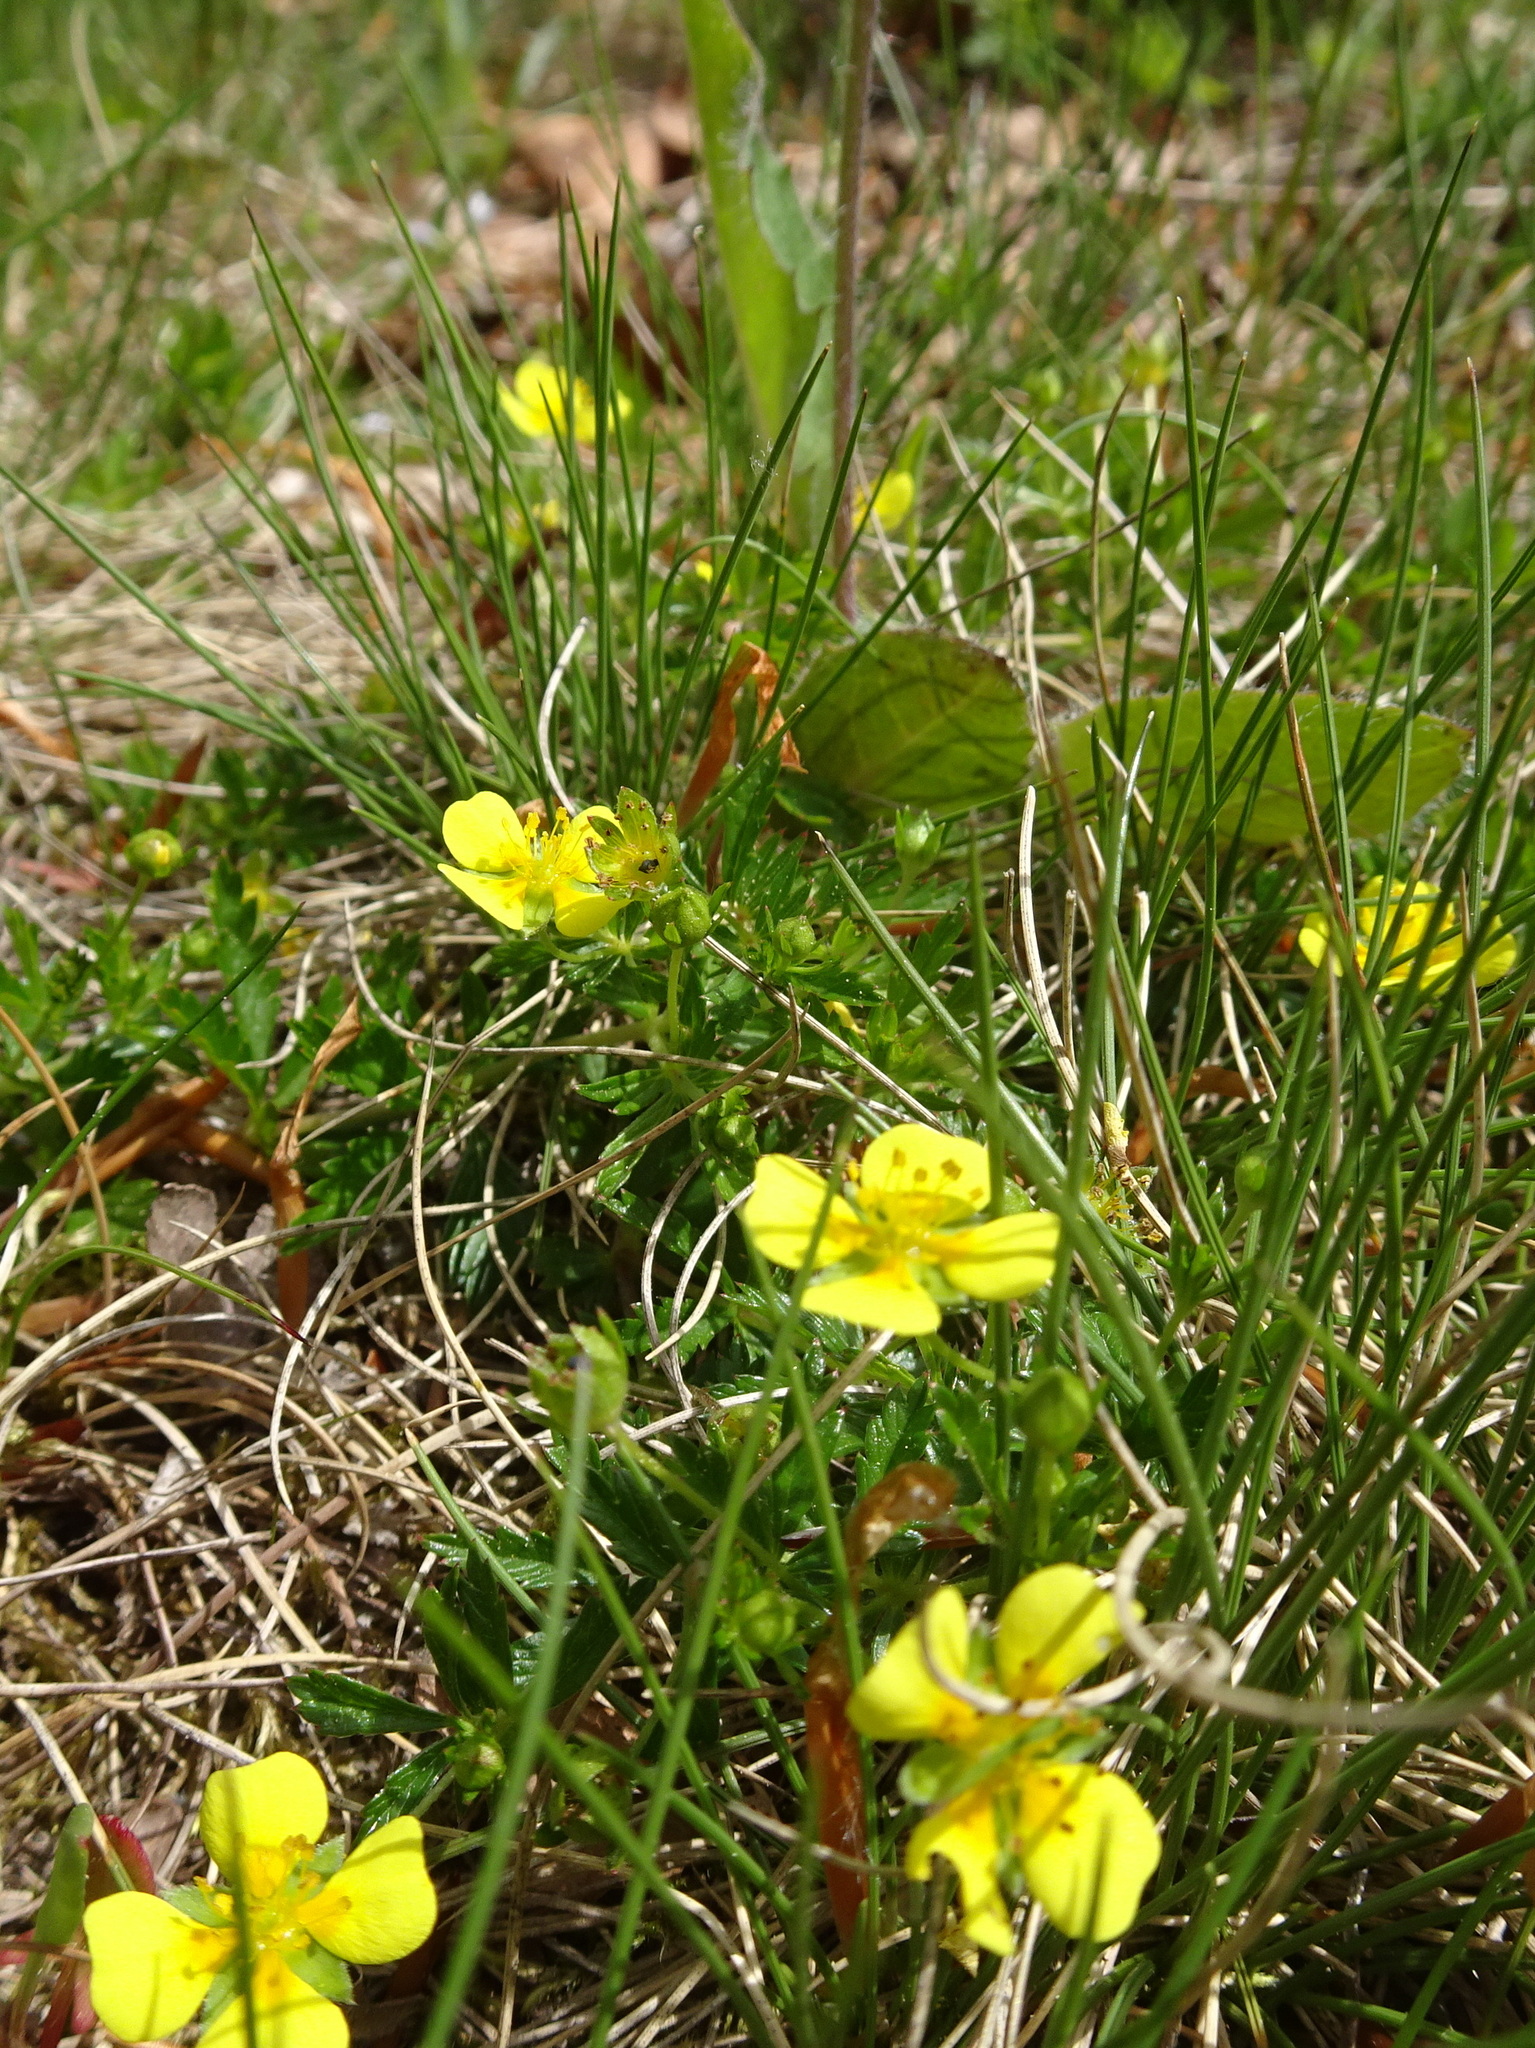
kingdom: Plantae
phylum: Tracheophyta
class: Magnoliopsida
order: Rosales
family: Rosaceae
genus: Potentilla
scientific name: Potentilla erecta
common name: Tormentil
